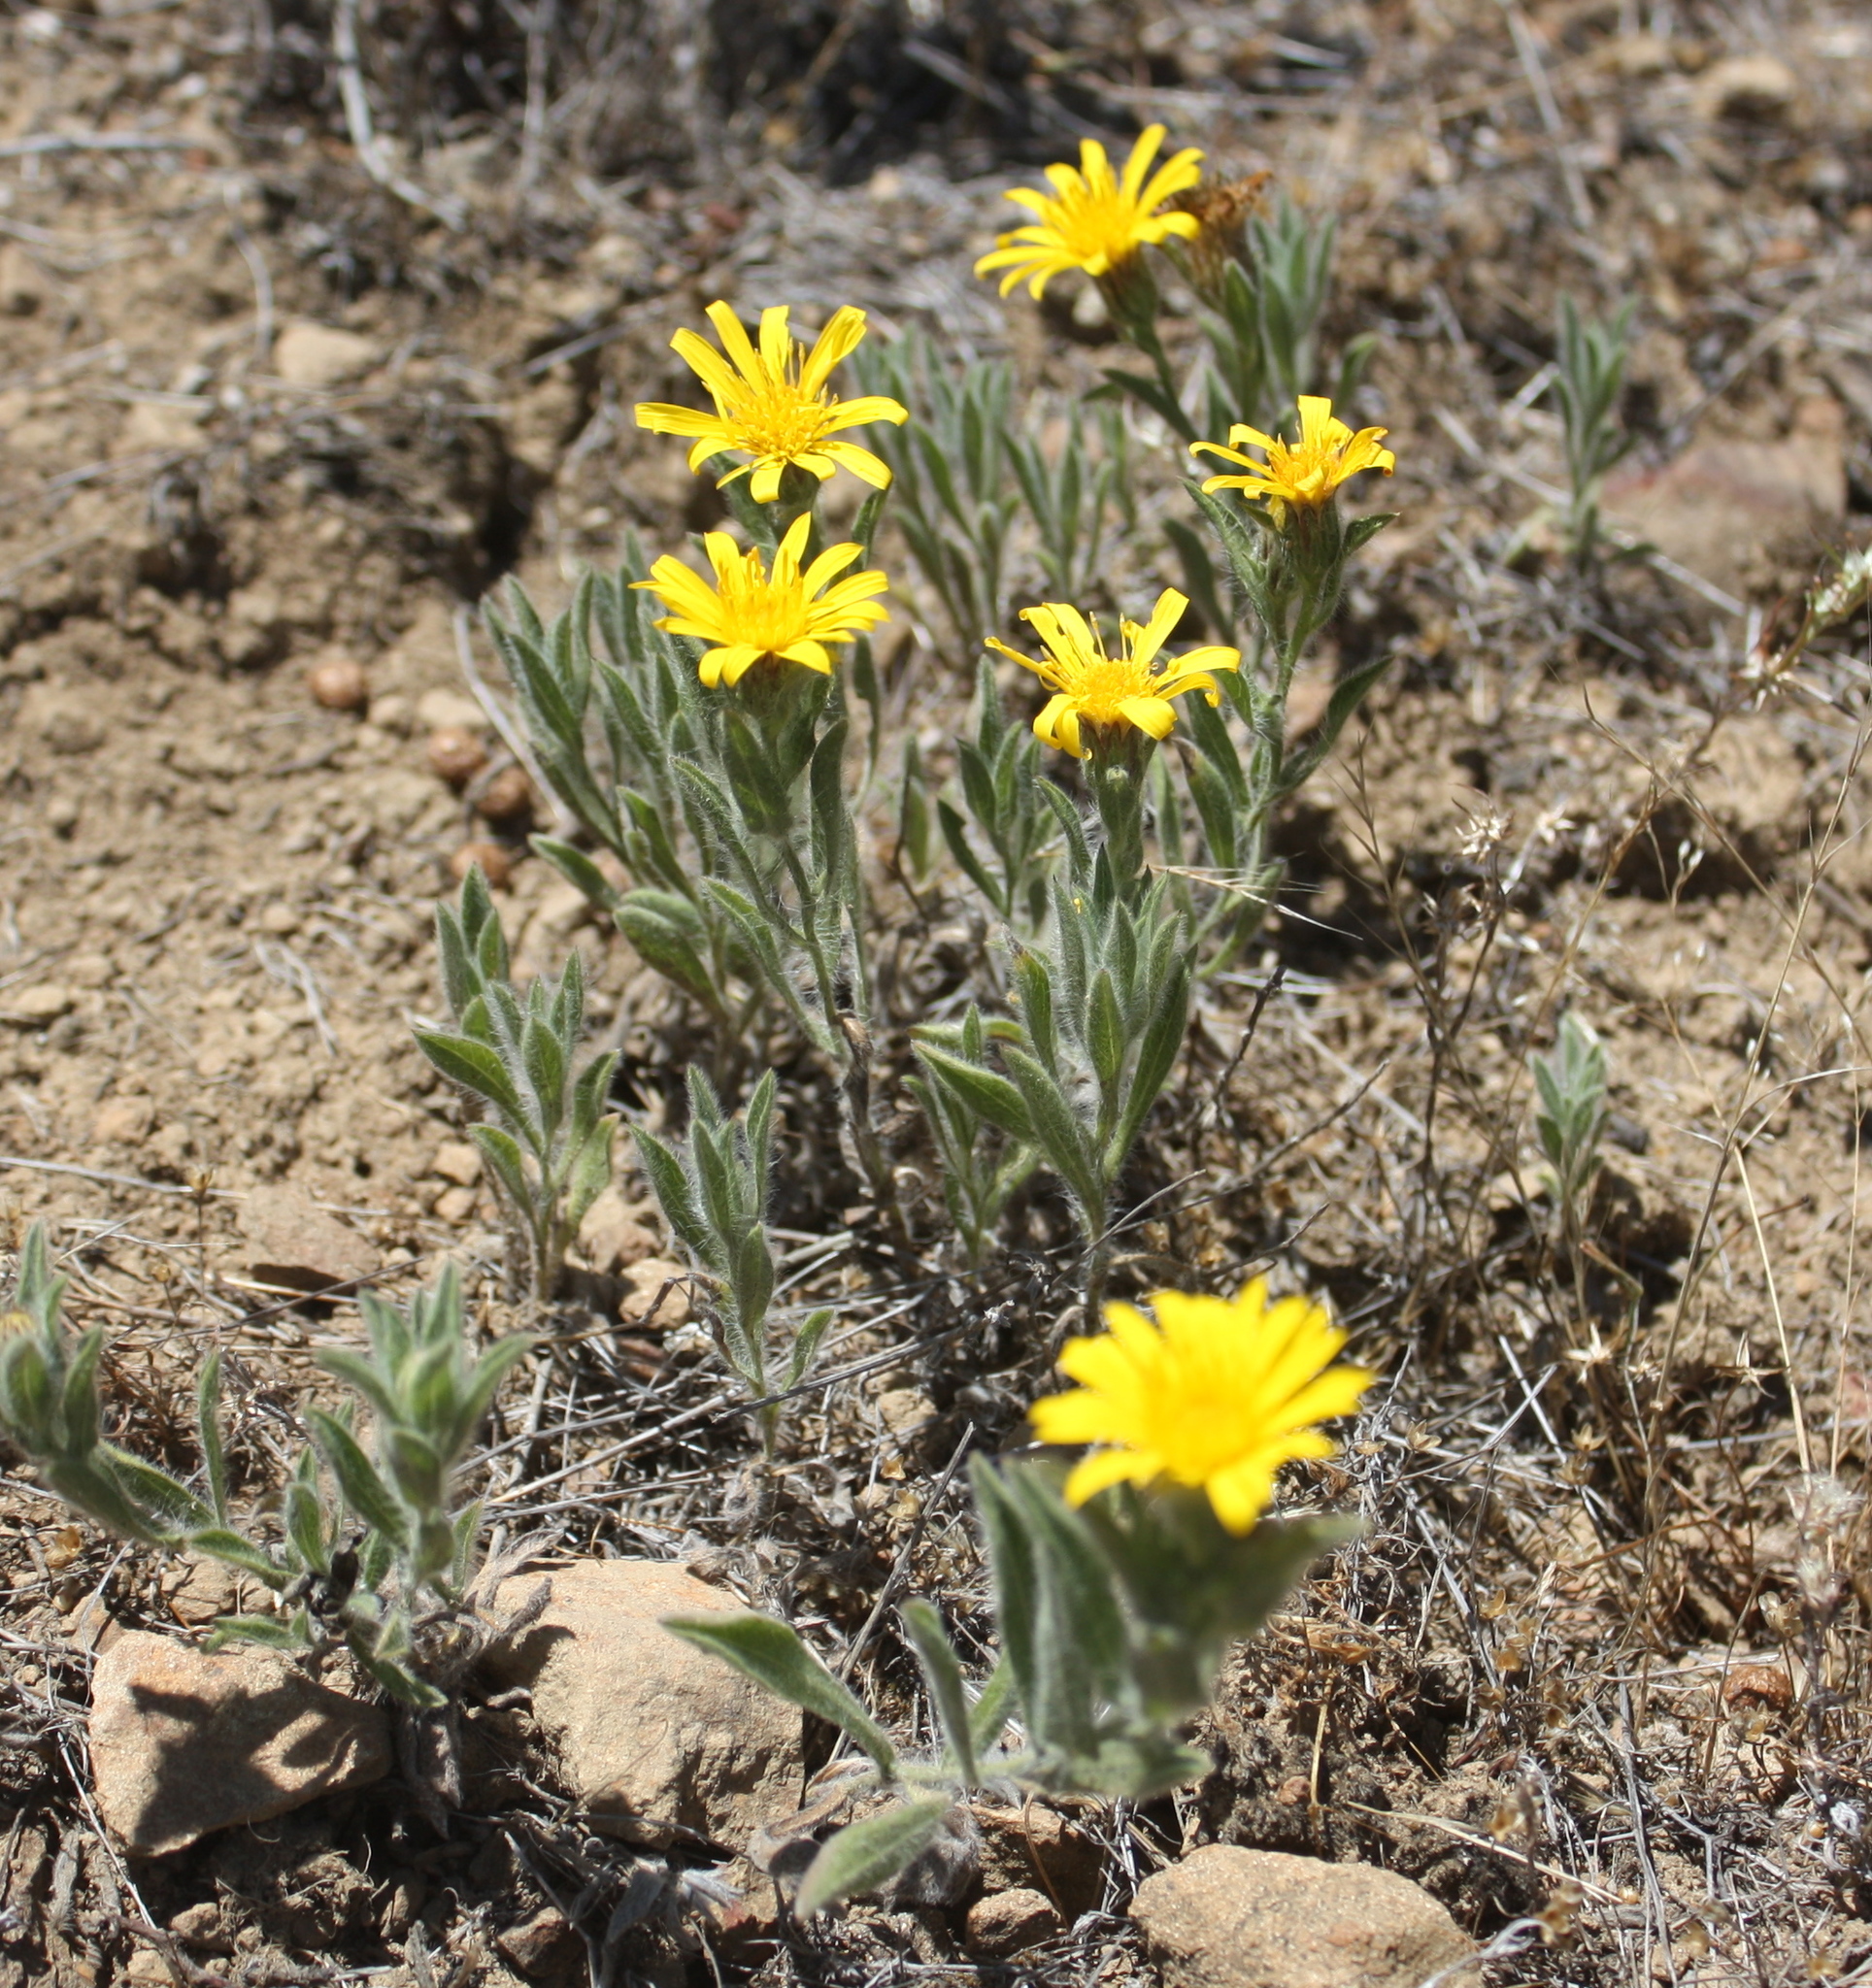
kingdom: Plantae
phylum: Tracheophyta
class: Magnoliopsida
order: Asterales
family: Asteraceae
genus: Heterotheca
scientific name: Heterotheca bolanderi
